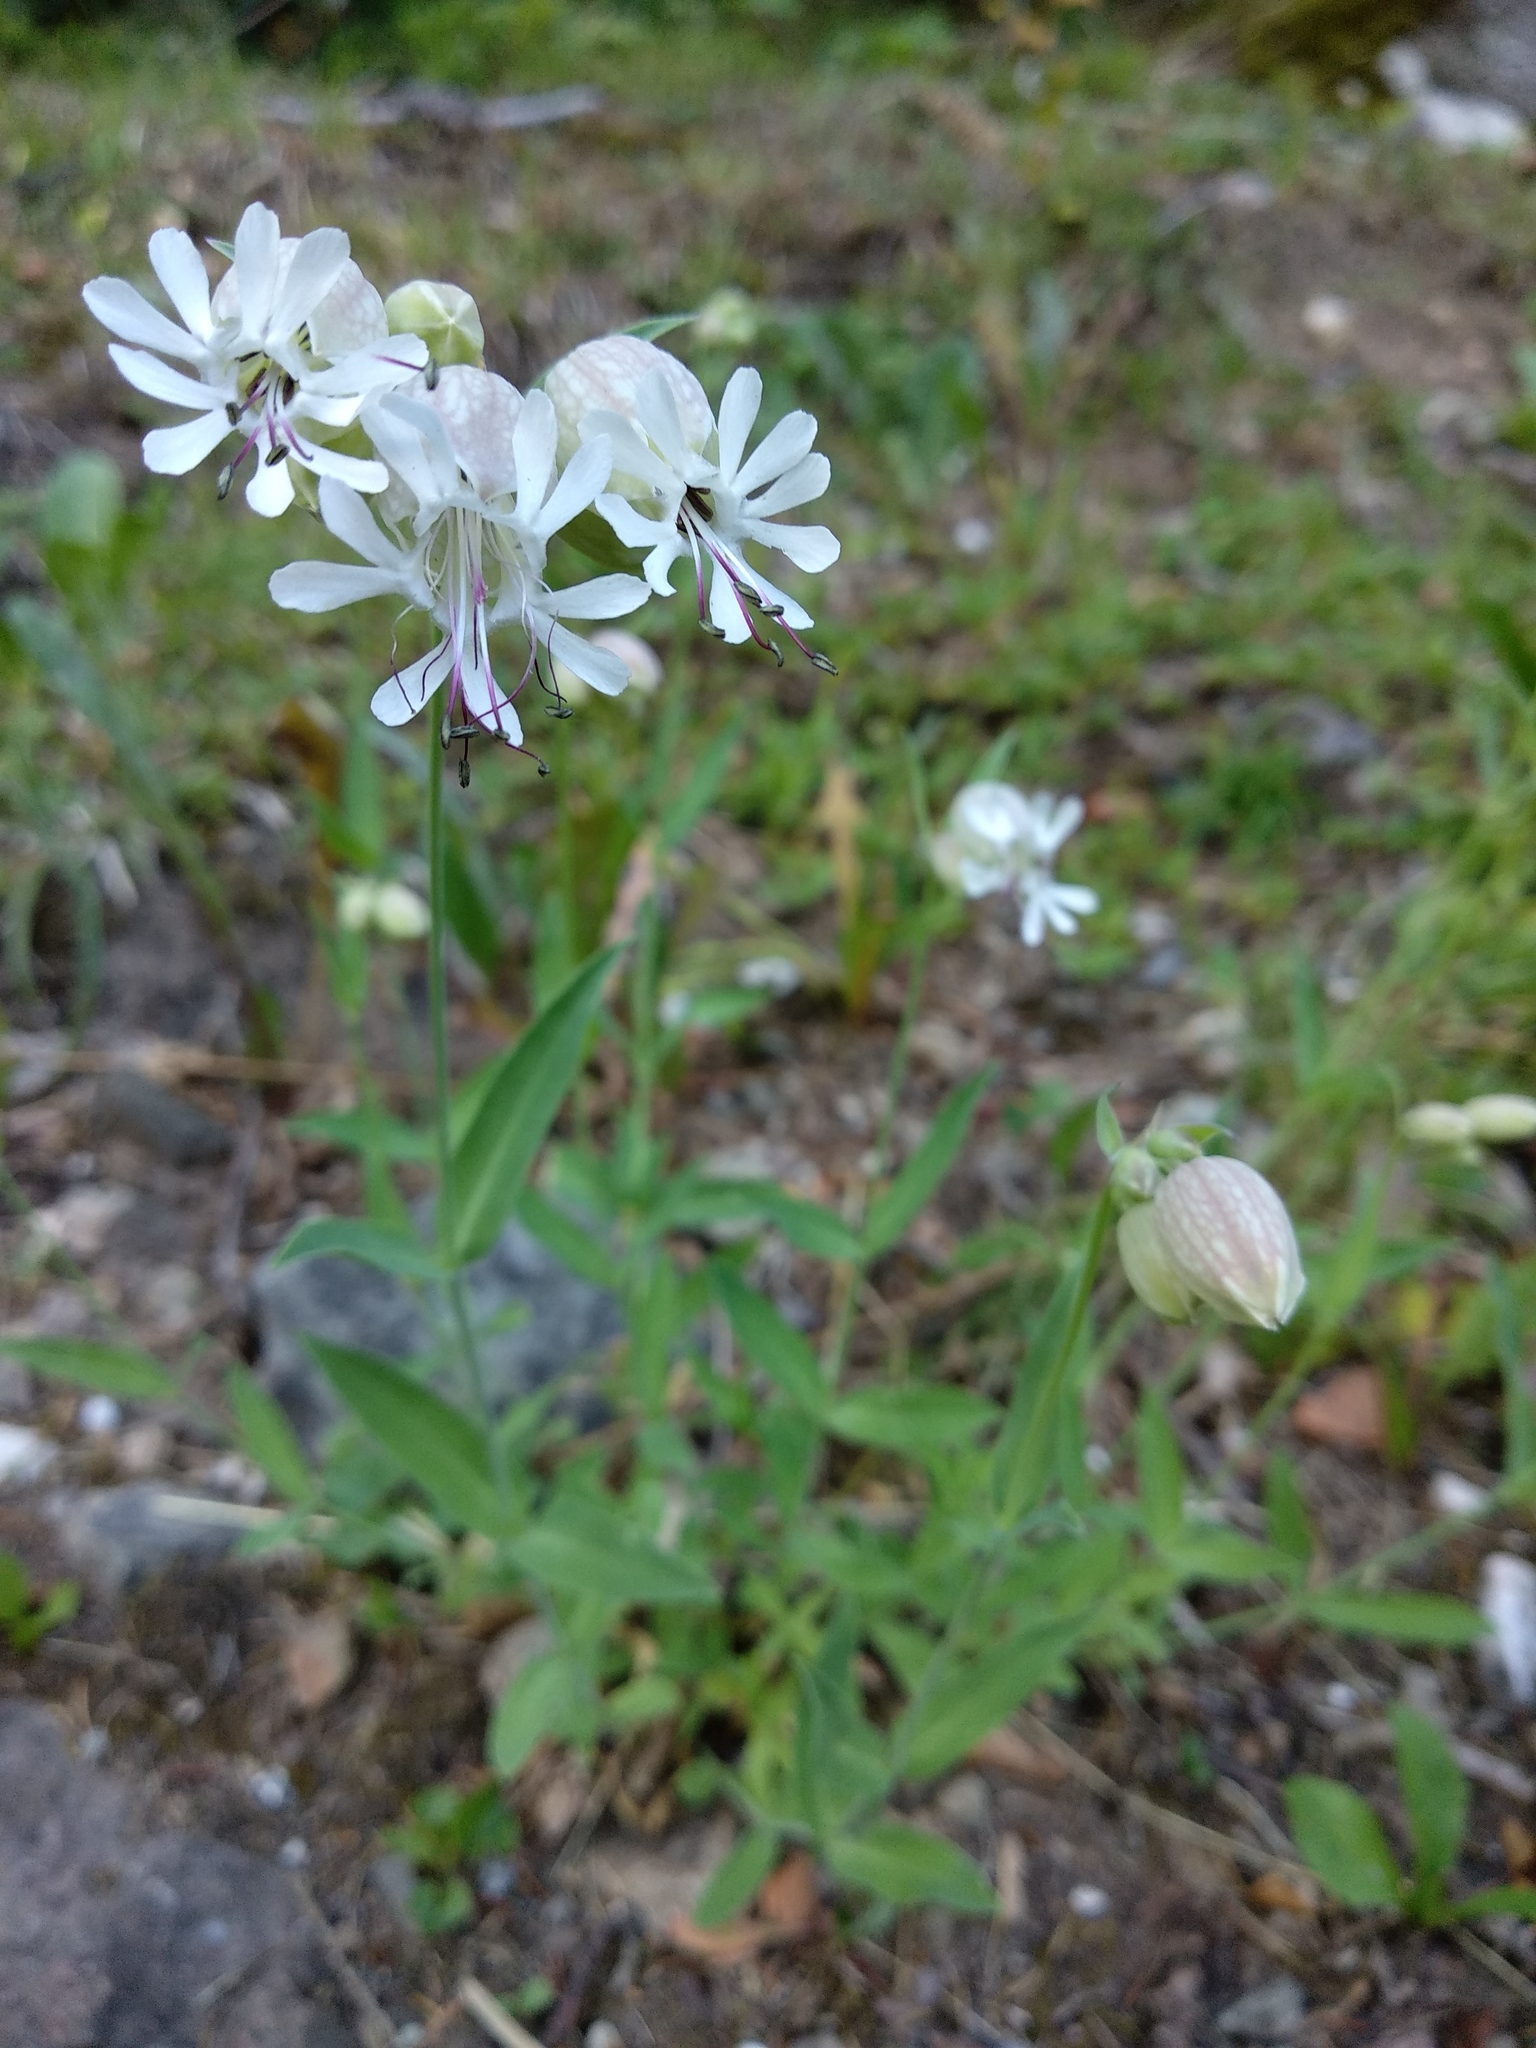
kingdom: Plantae
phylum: Tracheophyta
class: Magnoliopsida
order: Caryophyllales
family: Caryophyllaceae
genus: Silene
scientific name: Silene vulgaris
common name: Bladder campion
